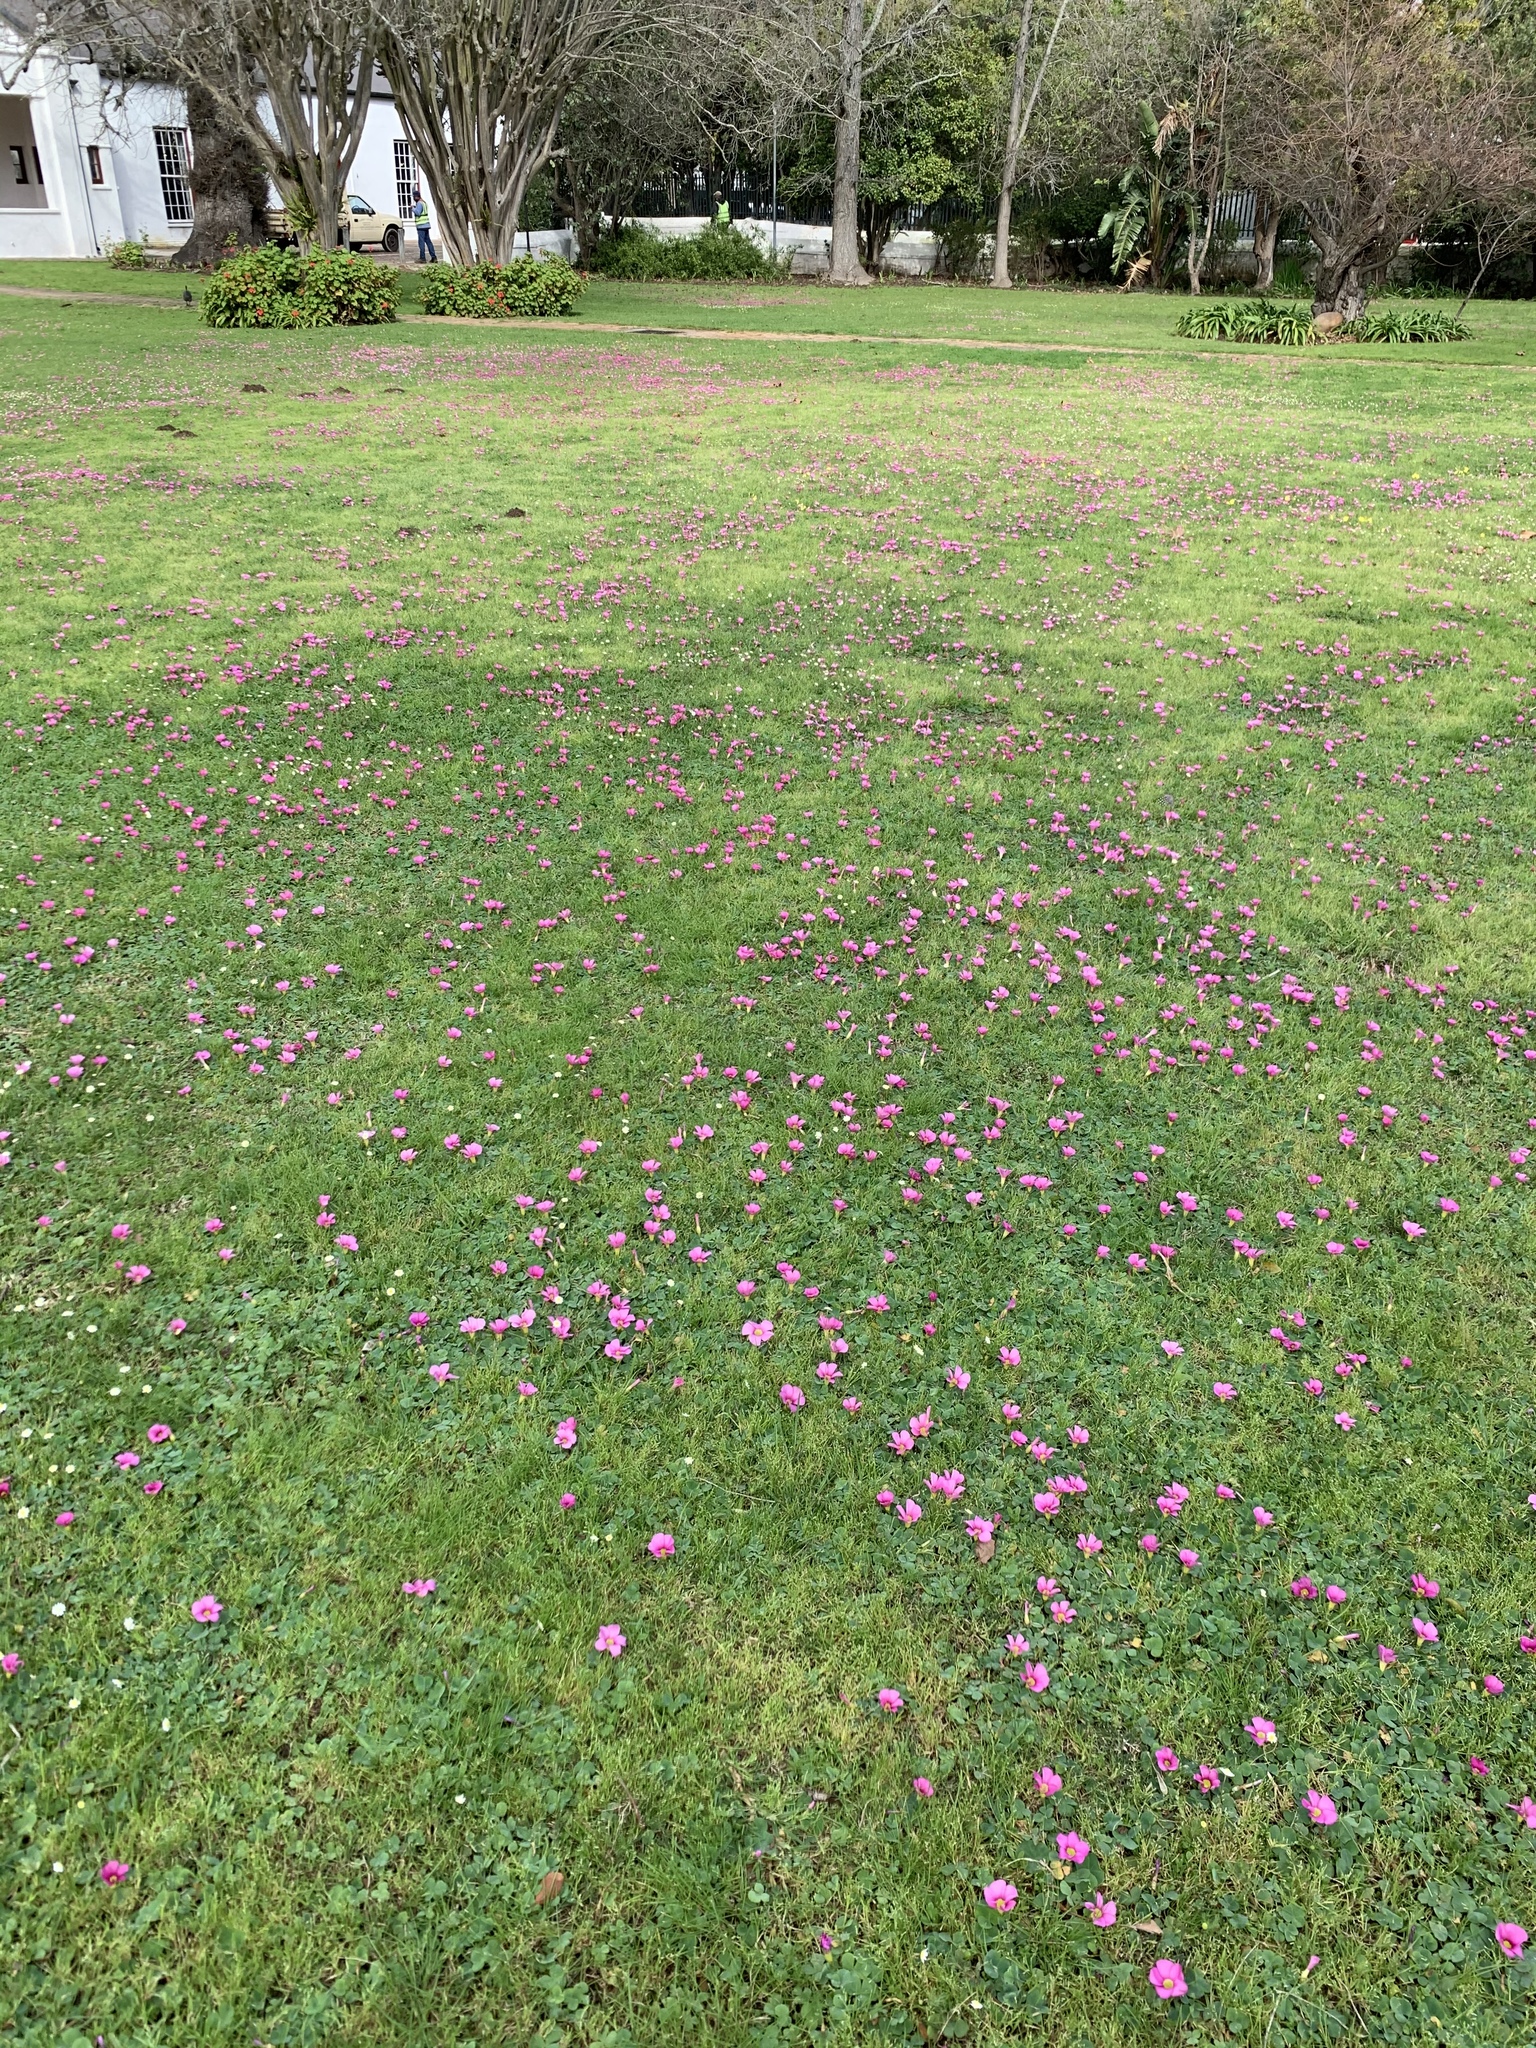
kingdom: Plantae
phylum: Tracheophyta
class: Magnoliopsida
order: Oxalidales
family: Oxalidaceae
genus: Oxalis
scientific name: Oxalis purpurea
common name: Purple woodsorrel
